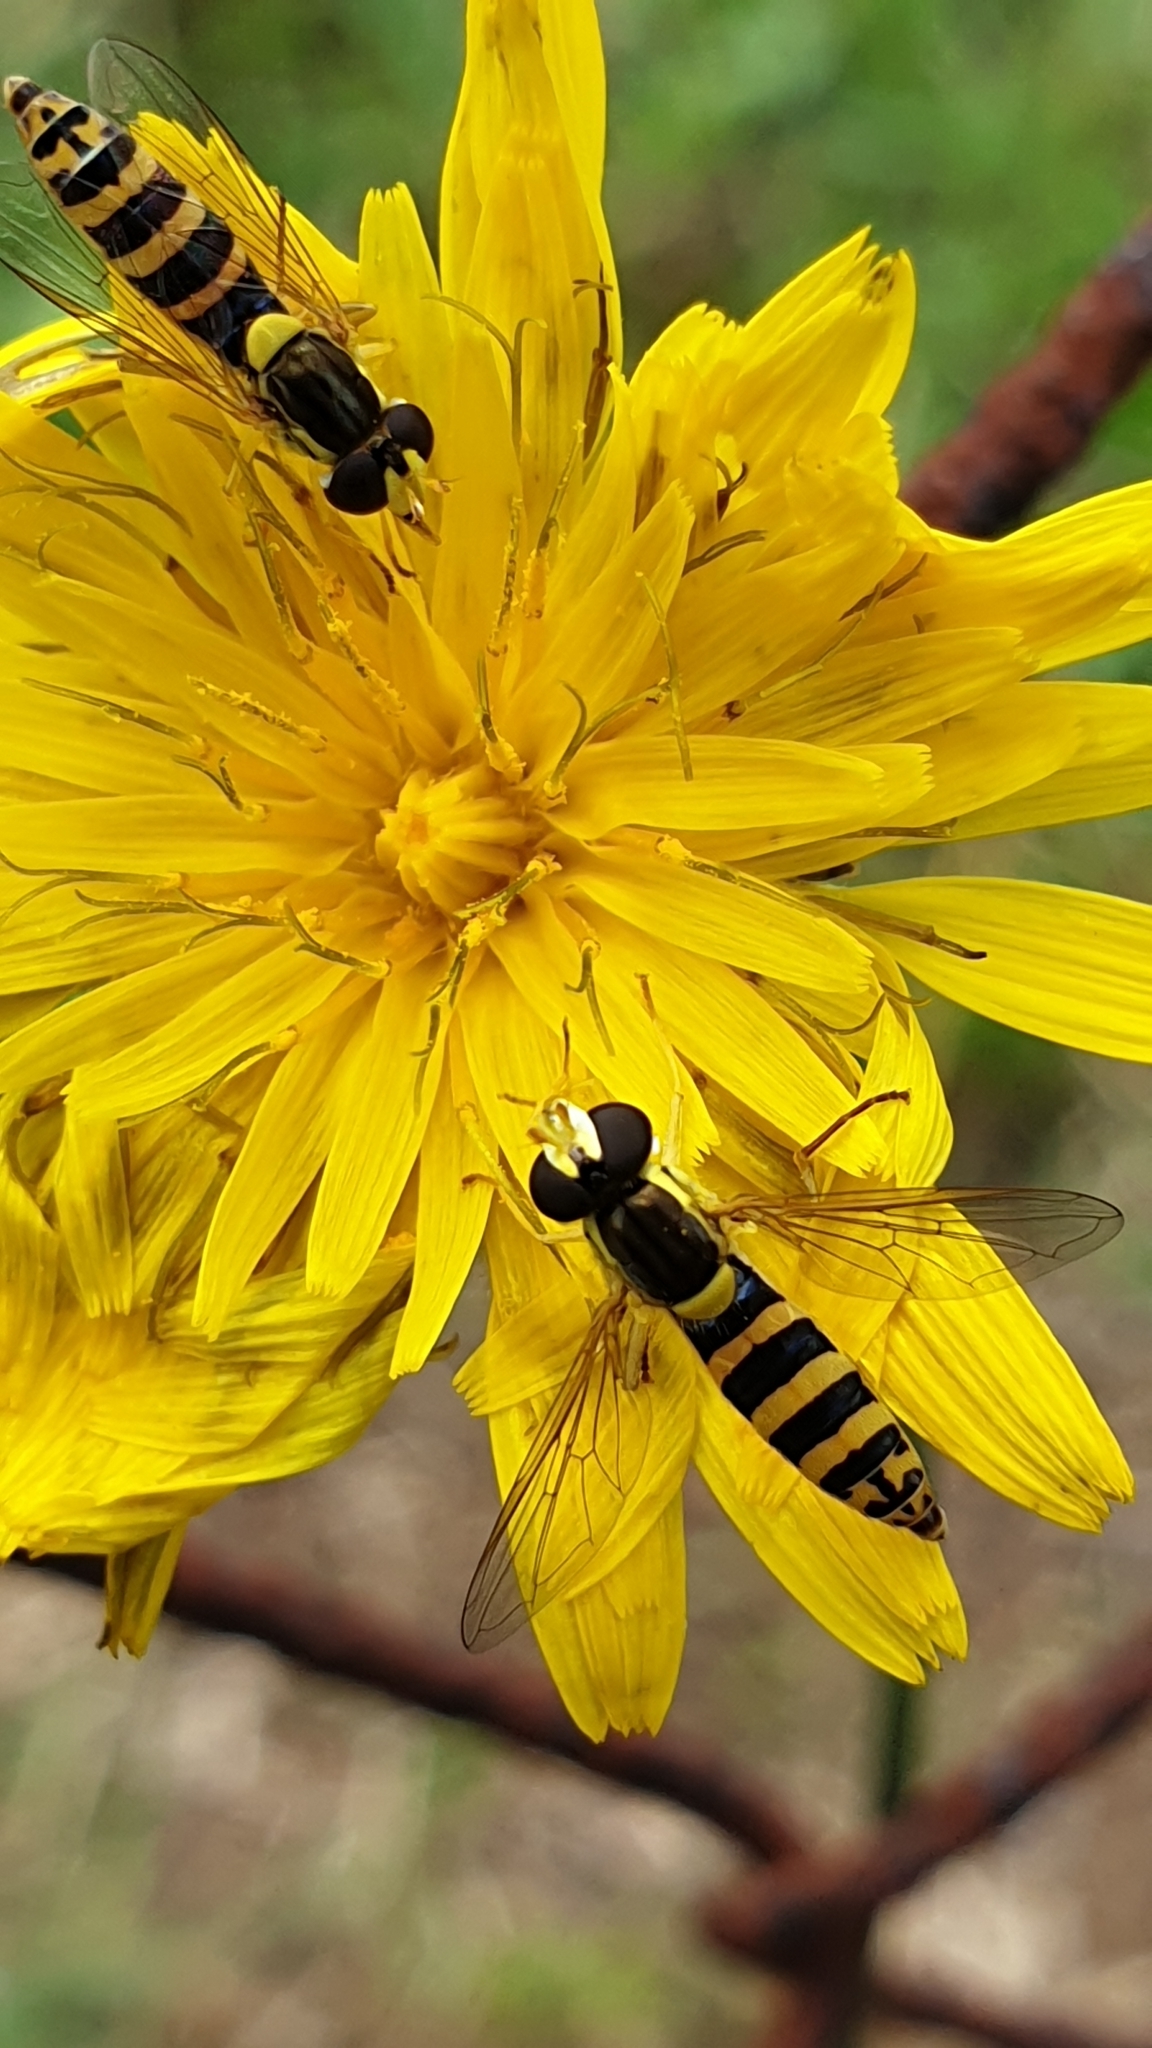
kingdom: Animalia
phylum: Arthropoda
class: Insecta
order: Diptera
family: Syrphidae
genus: Sphaerophoria
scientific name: Sphaerophoria
